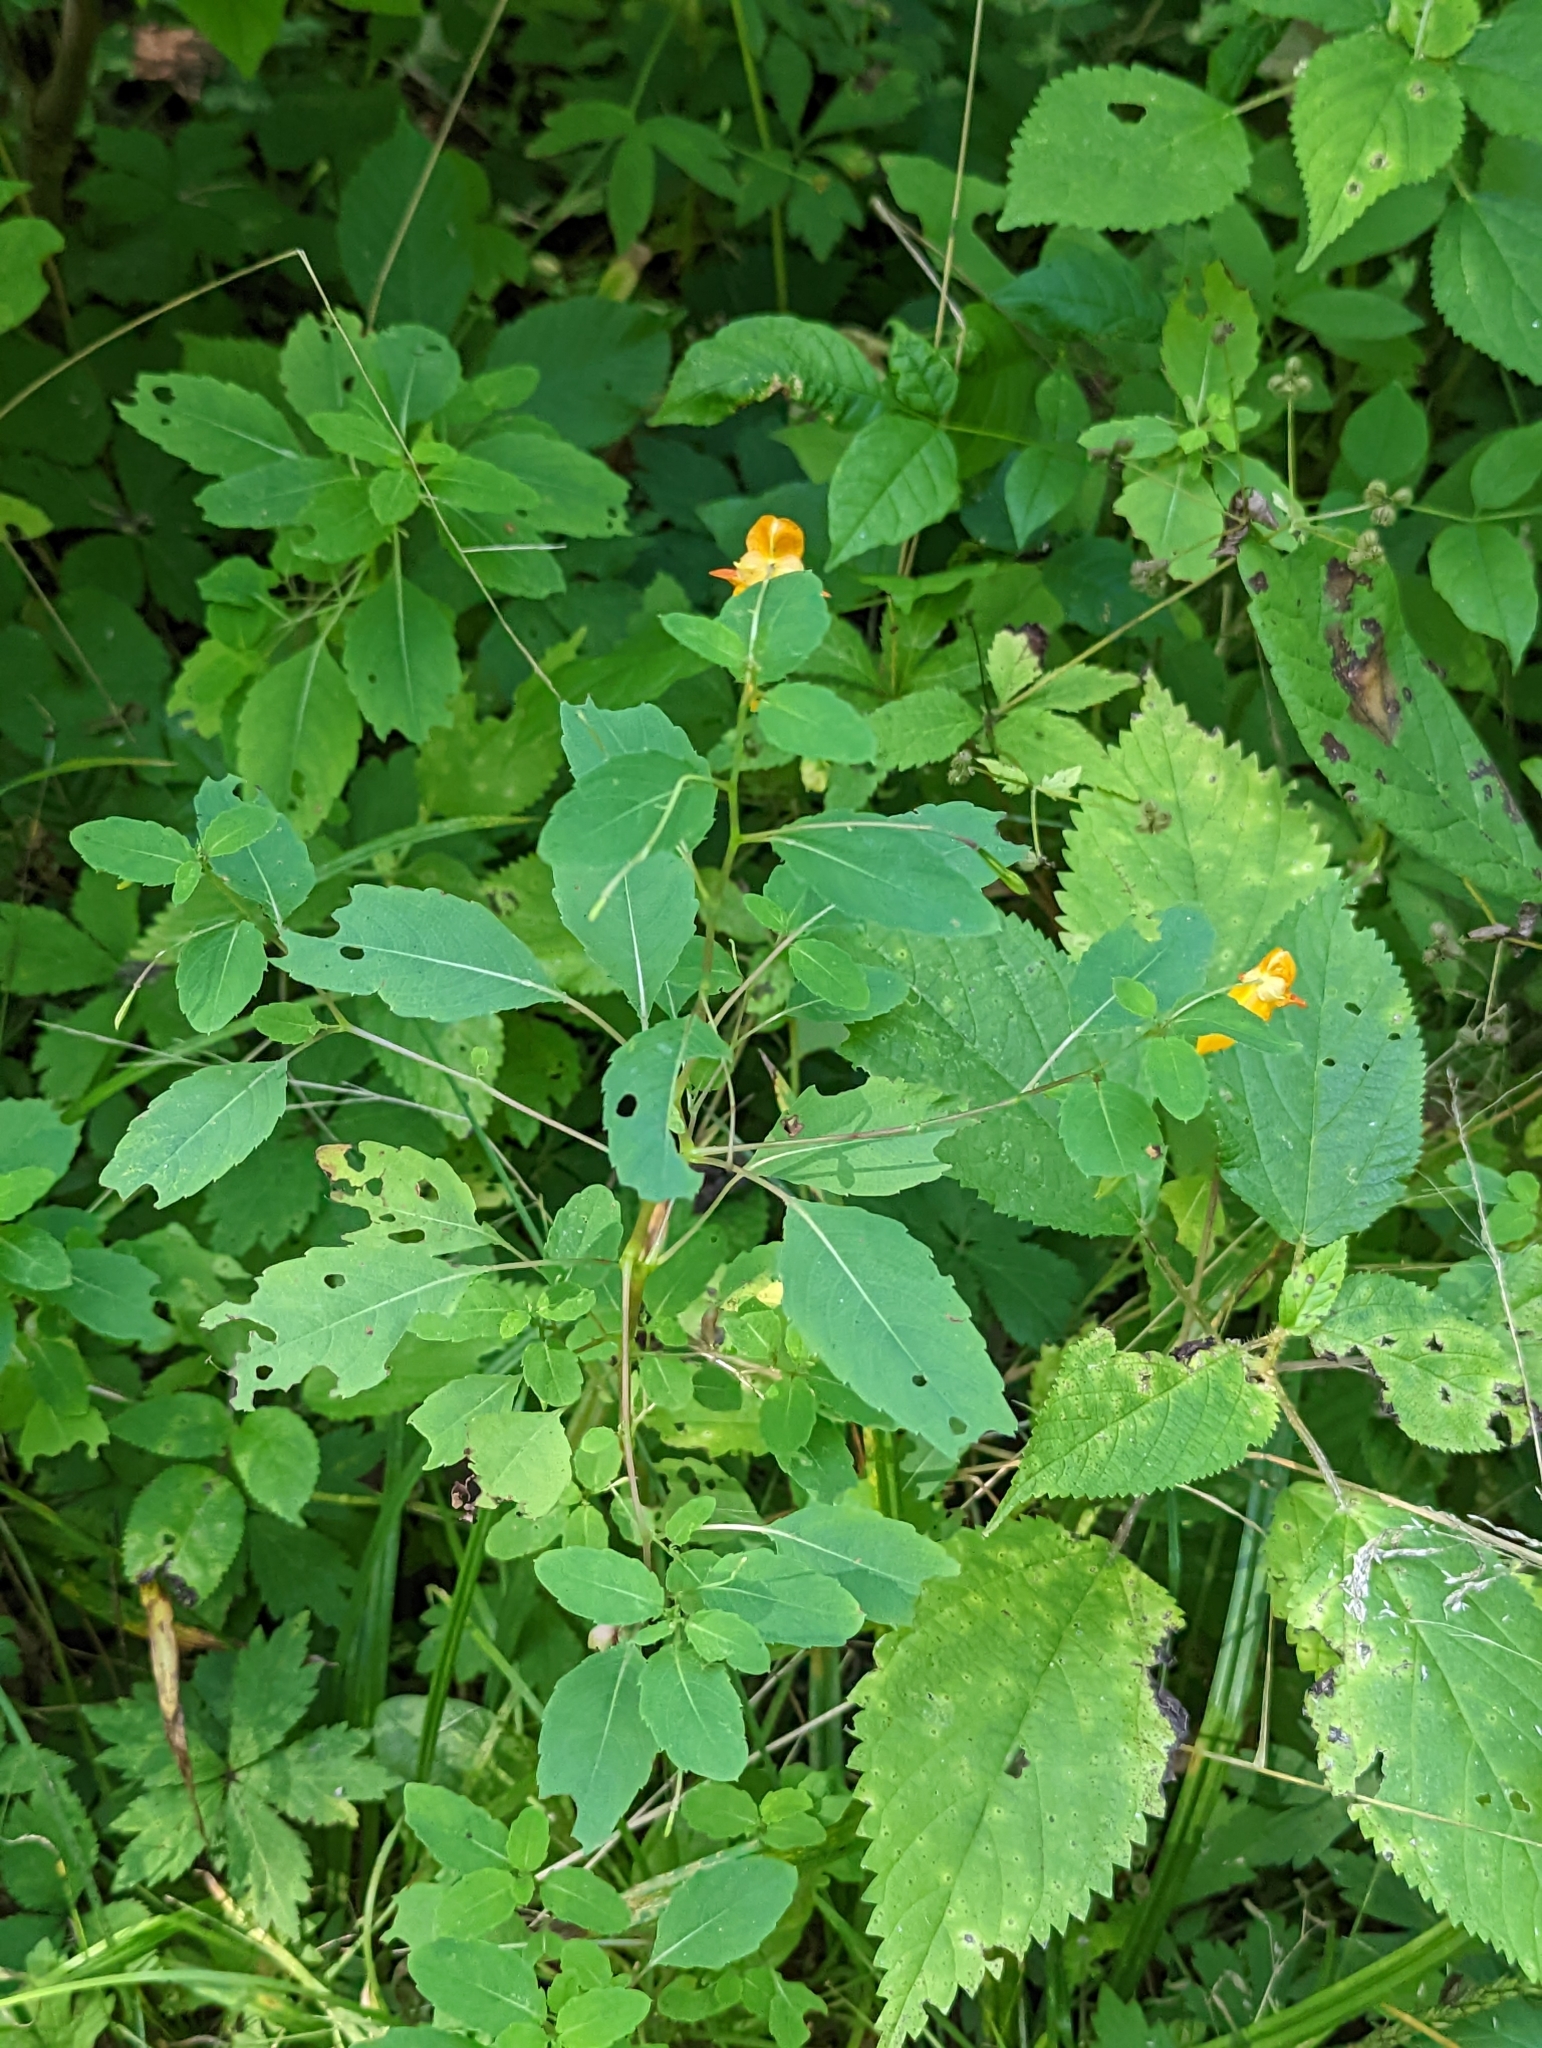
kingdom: Plantae
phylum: Tracheophyta
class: Magnoliopsida
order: Ericales
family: Balsaminaceae
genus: Impatiens
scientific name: Impatiens capensis
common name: Orange balsam
